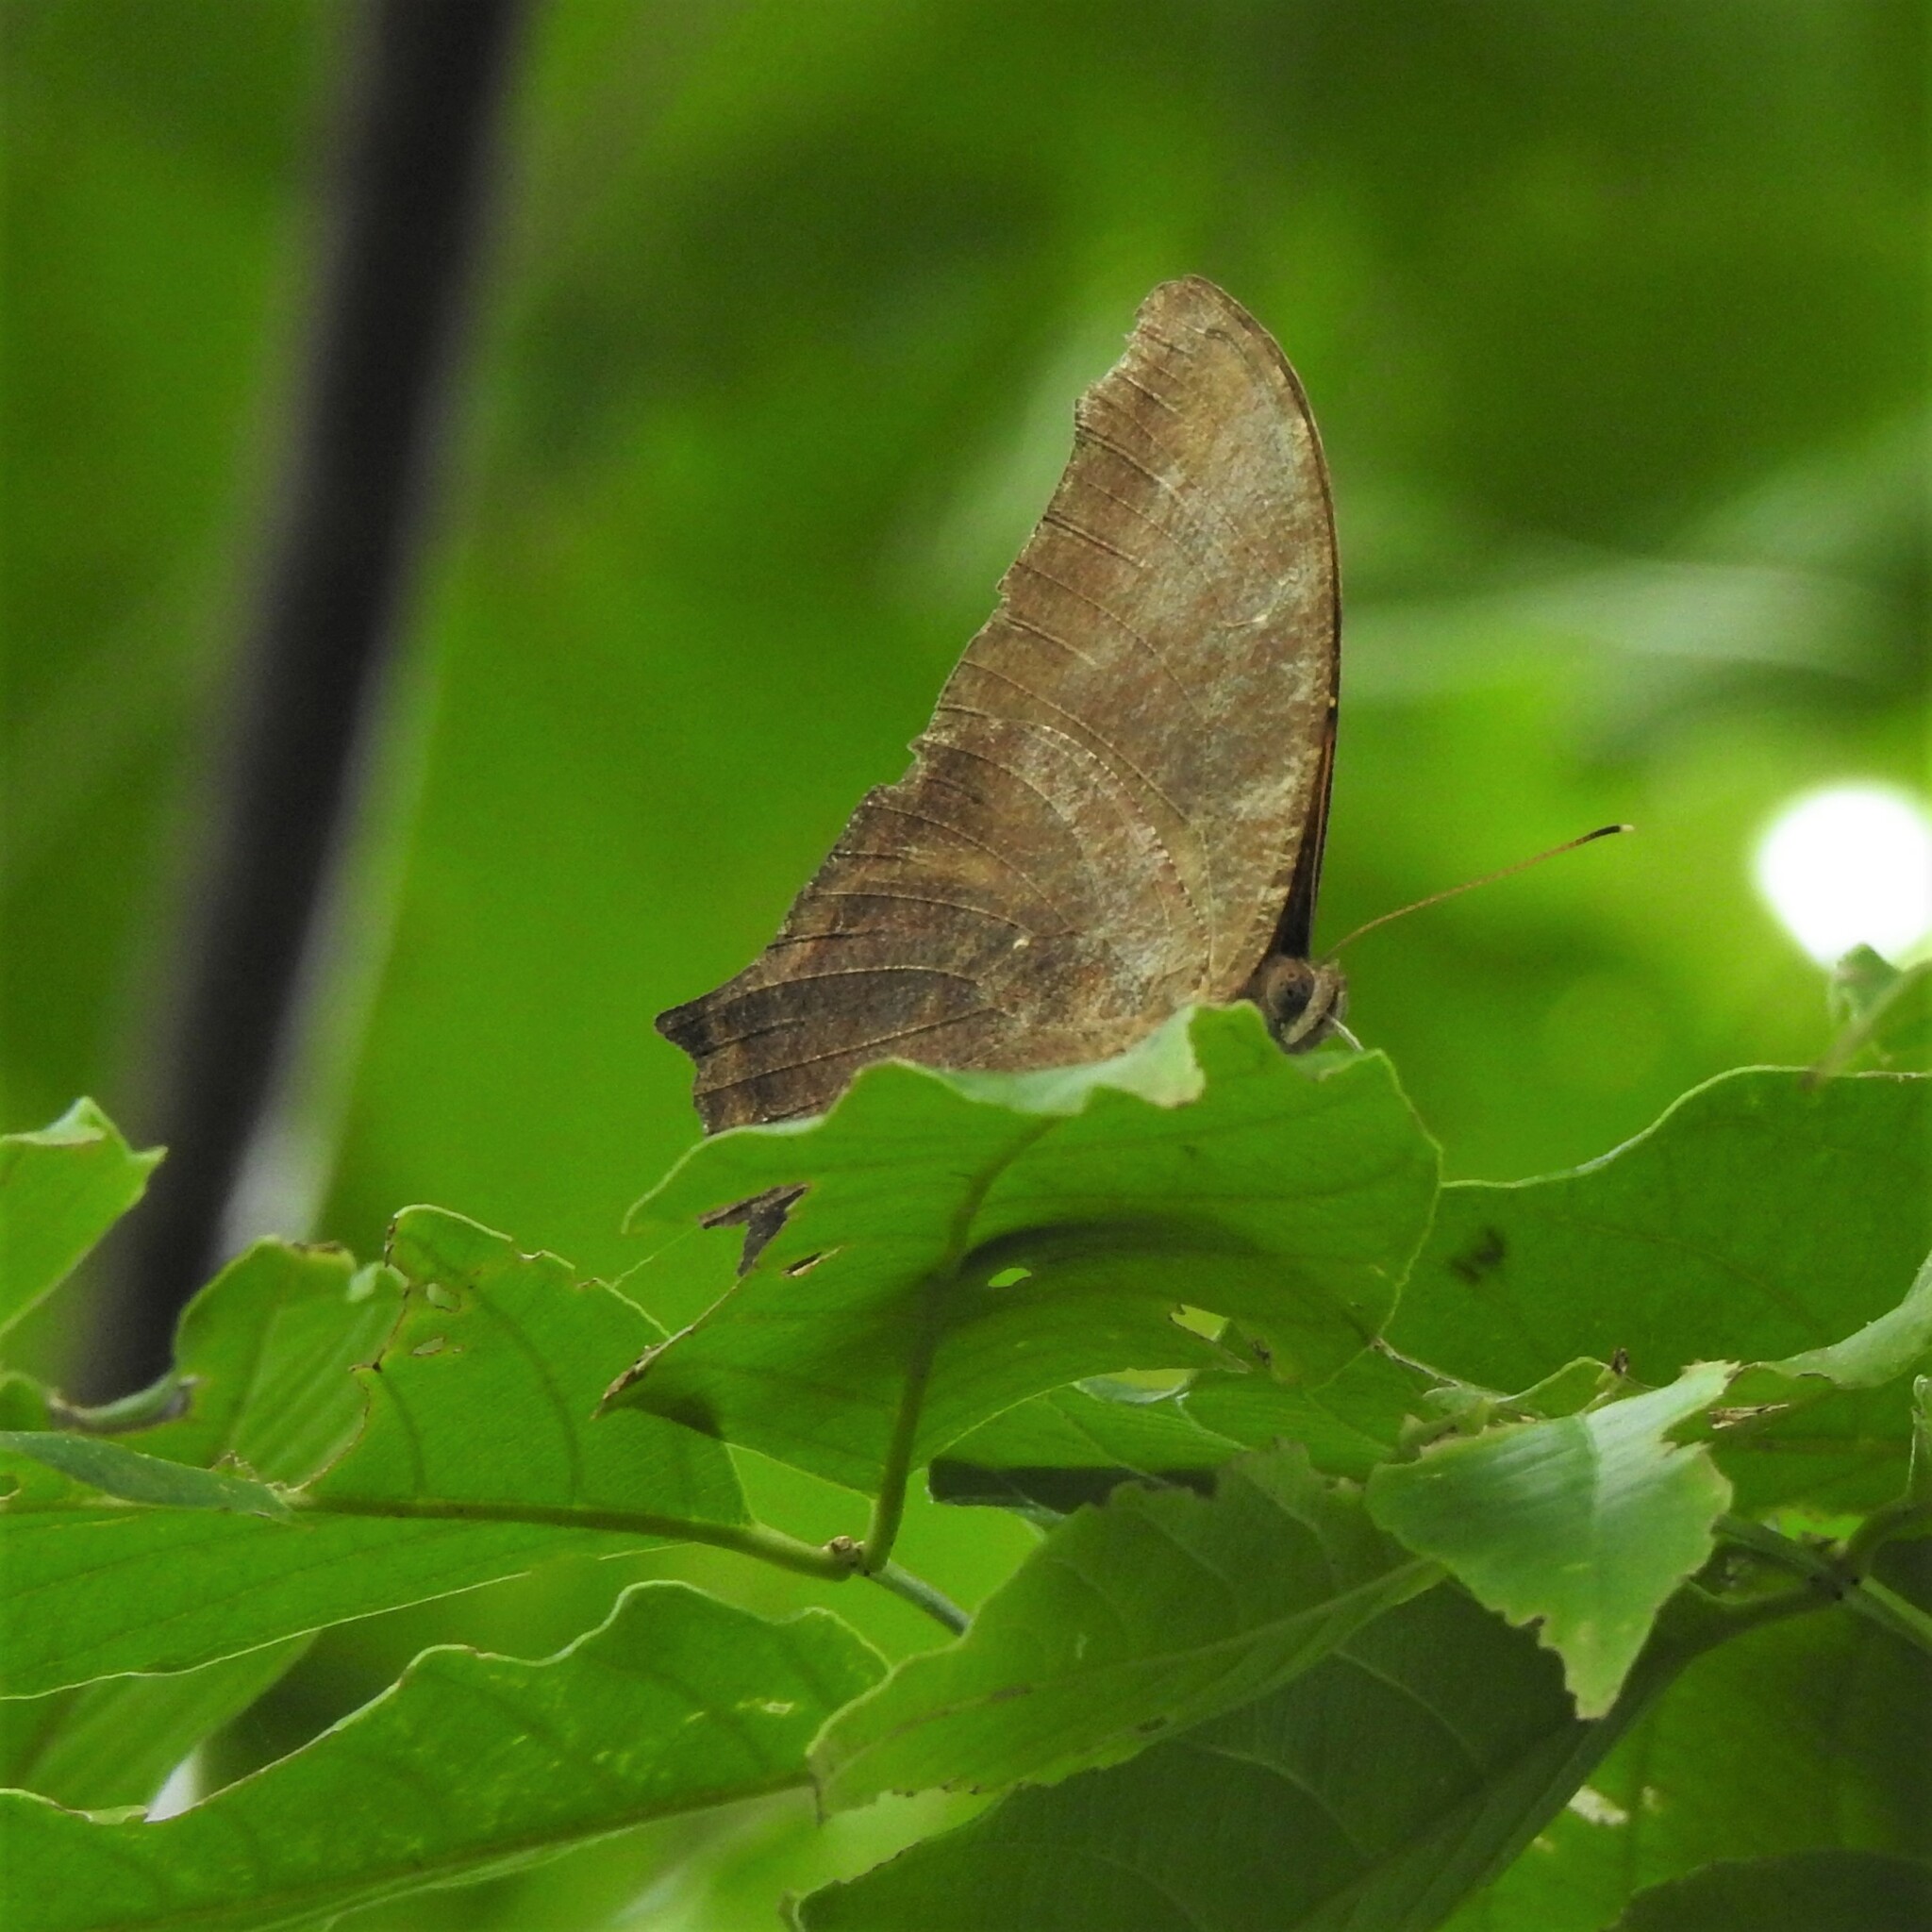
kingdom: Animalia
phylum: Arthropoda
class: Insecta
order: Lepidoptera
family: Nymphalidae
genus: Melanitis
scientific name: Melanitis leda
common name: Twilight brown
